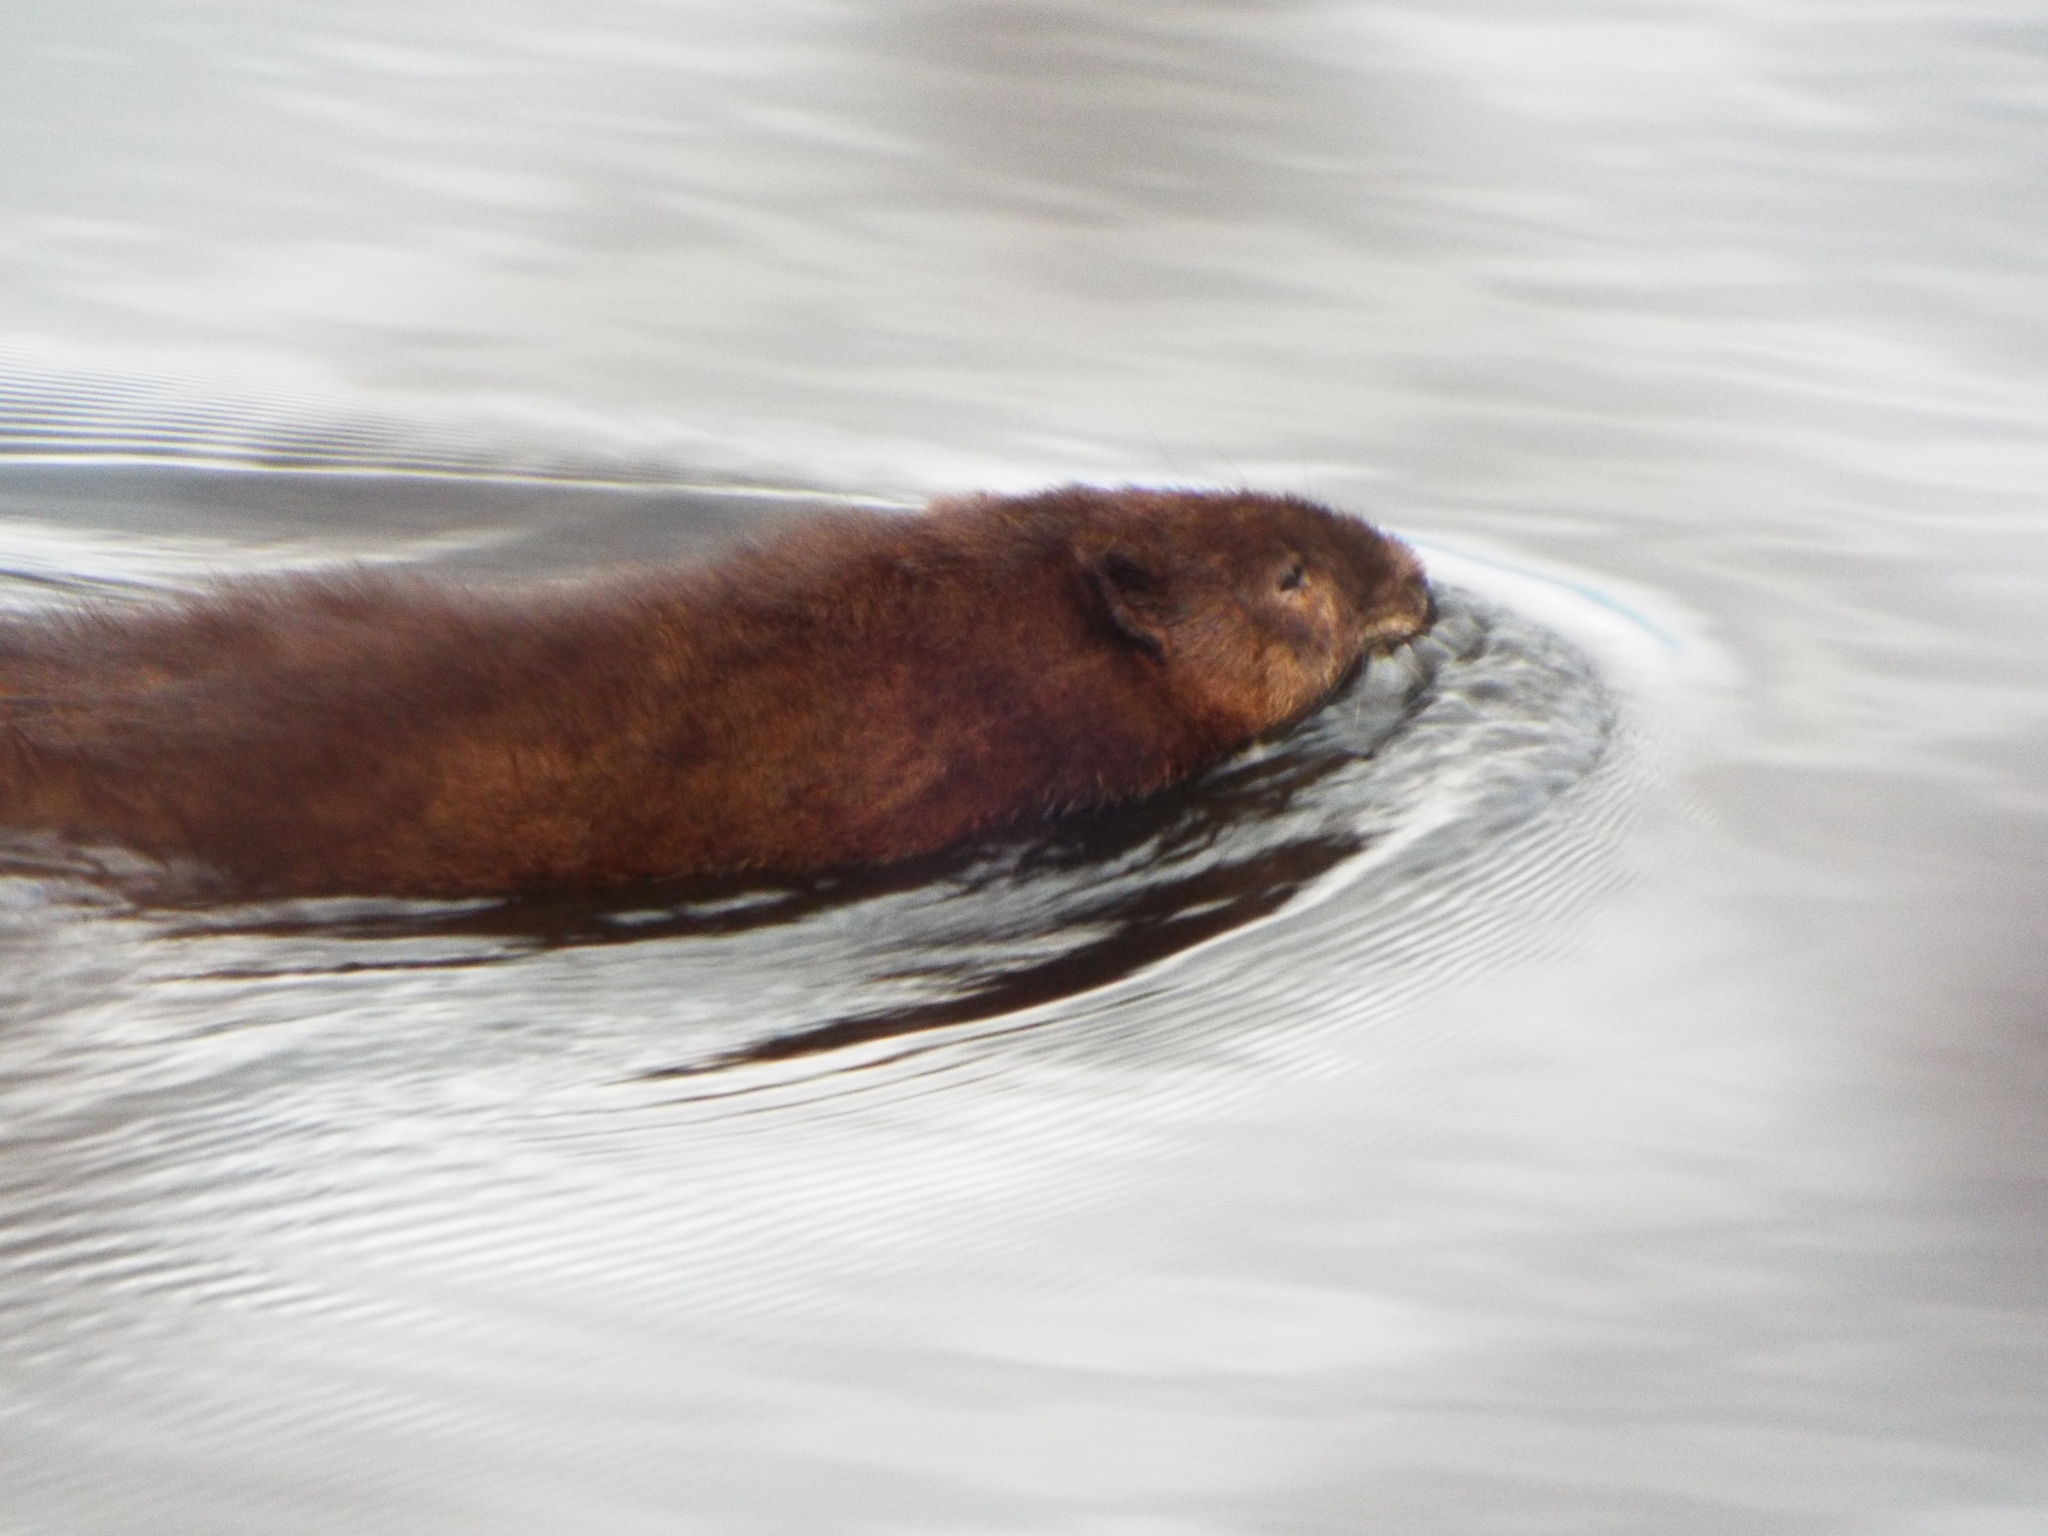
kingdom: Animalia
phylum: Chordata
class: Mammalia
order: Rodentia
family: Cricetidae
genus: Ondatra
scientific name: Ondatra zibethicus
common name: Muskrat
